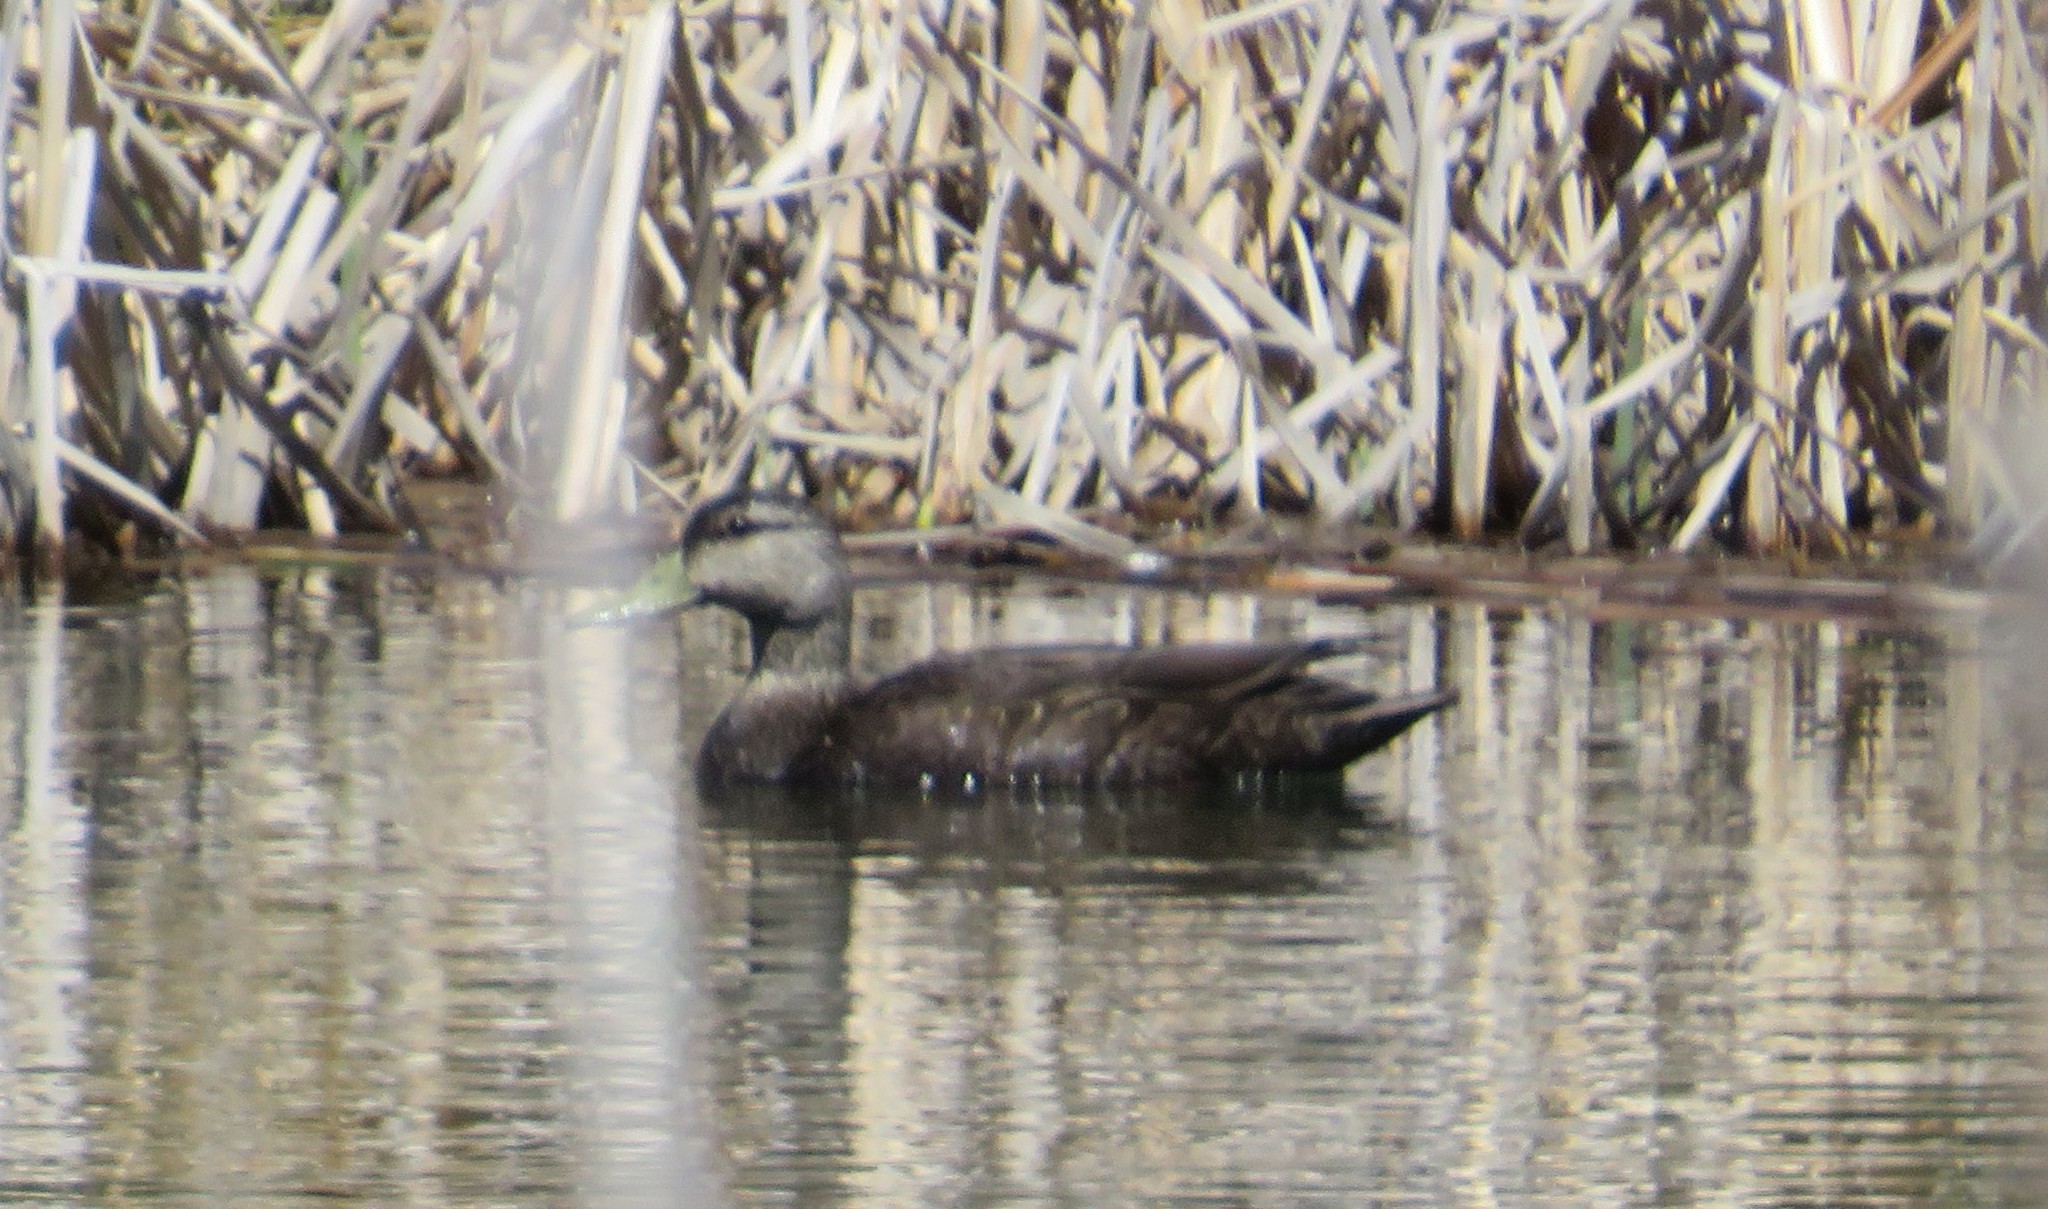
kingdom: Animalia
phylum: Chordata
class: Aves
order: Anseriformes
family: Anatidae
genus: Anas
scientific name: Anas rubripes
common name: American black duck
